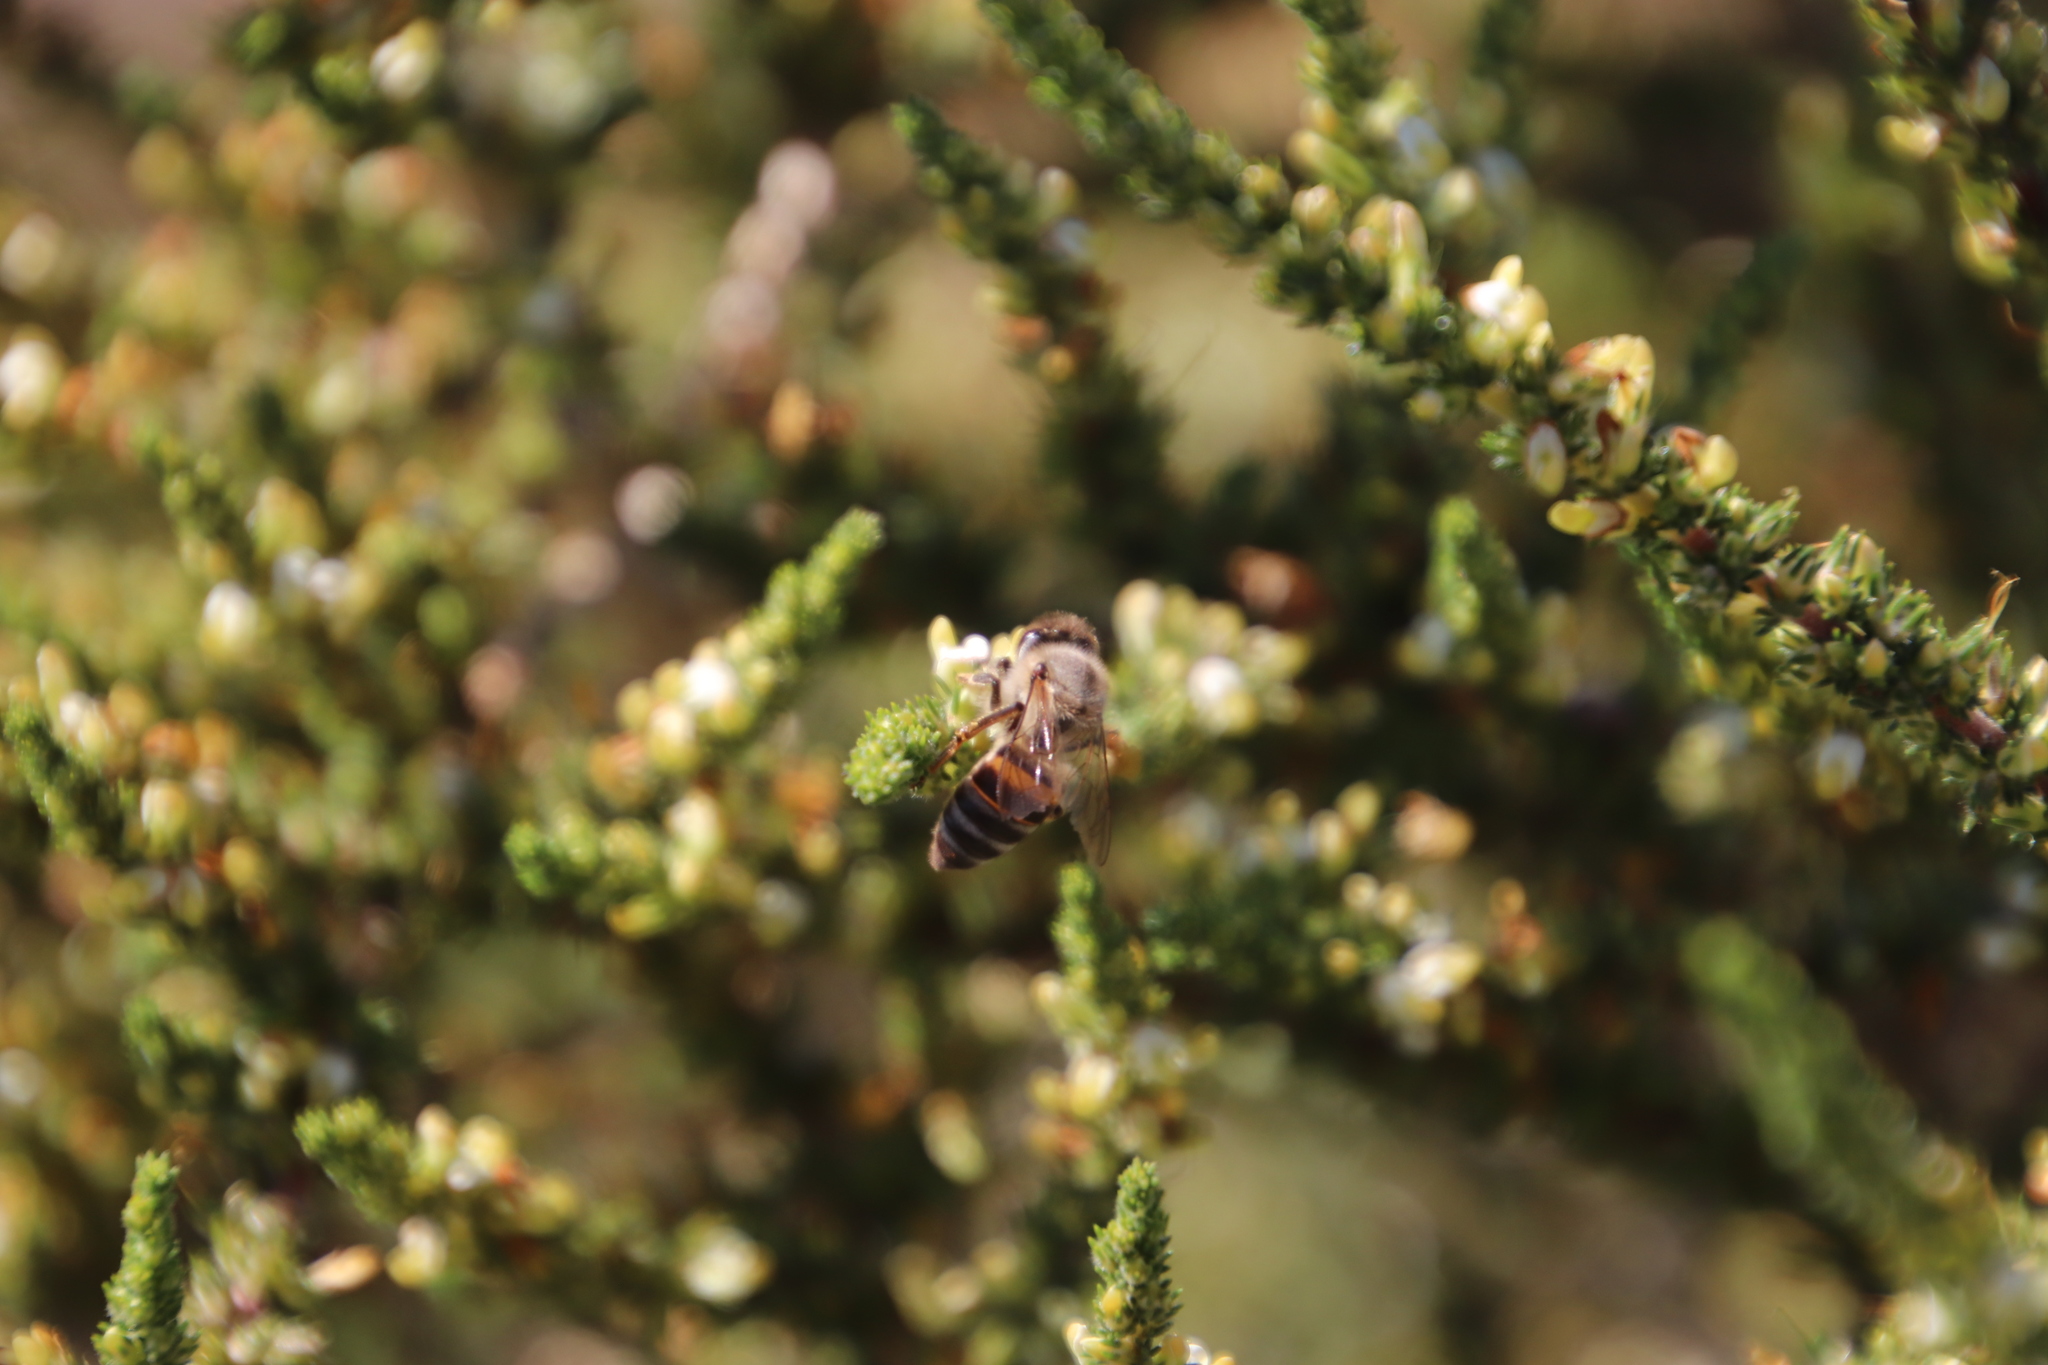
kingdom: Plantae
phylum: Tracheophyta
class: Magnoliopsida
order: Fabales
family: Fabaceae
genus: Aspalathus
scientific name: Aspalathus hispida
